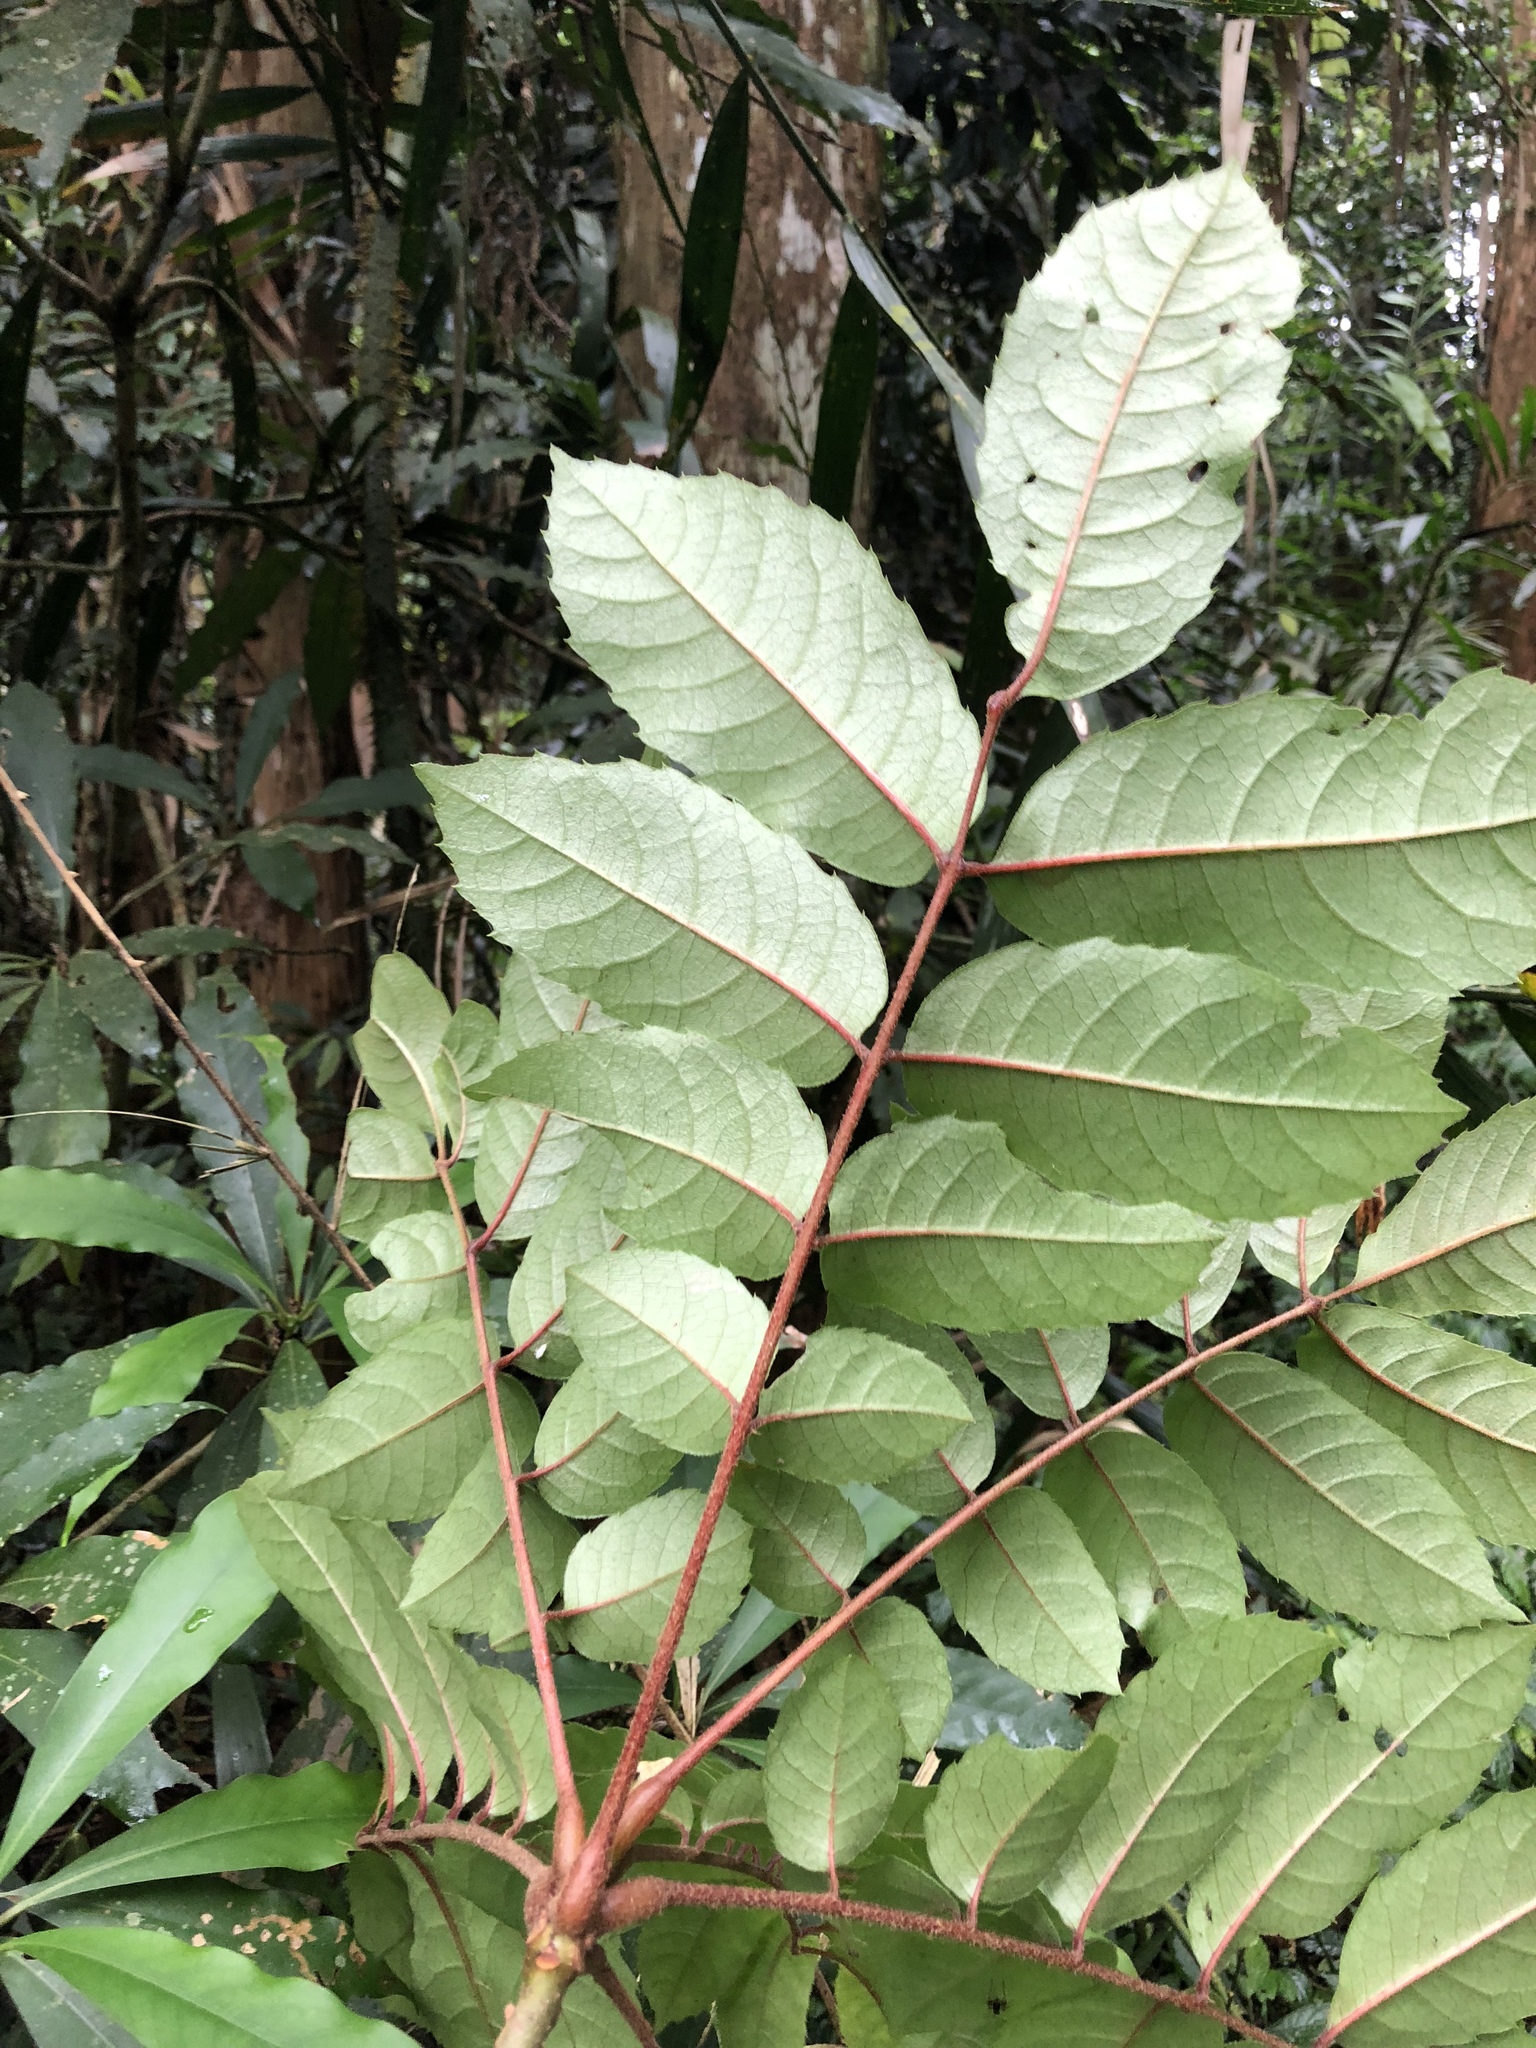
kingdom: Plantae
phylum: Tracheophyta
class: Magnoliopsida
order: Proteales
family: Sabiaceae
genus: Meliosma
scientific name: Meliosma rhoifolia
